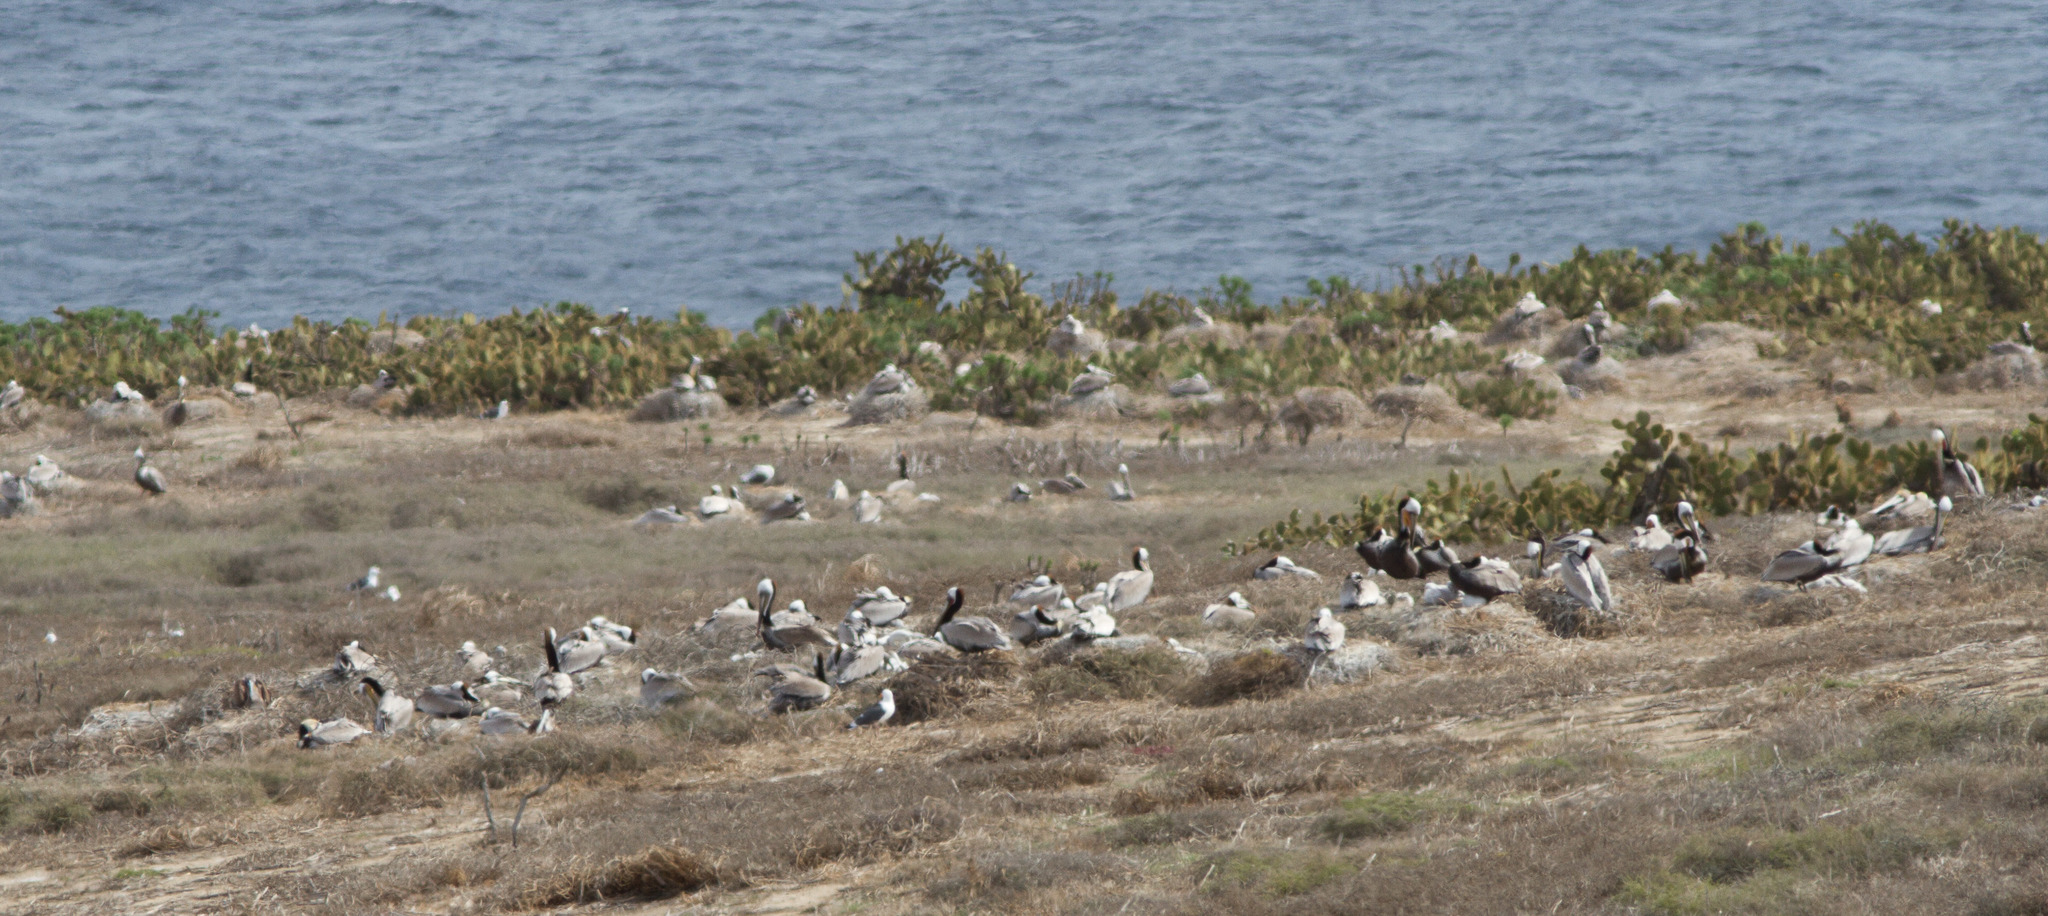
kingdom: Animalia
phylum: Chordata
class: Aves
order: Pelecaniformes
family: Pelecanidae
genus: Pelecanus
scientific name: Pelecanus occidentalis
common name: Brown pelican
